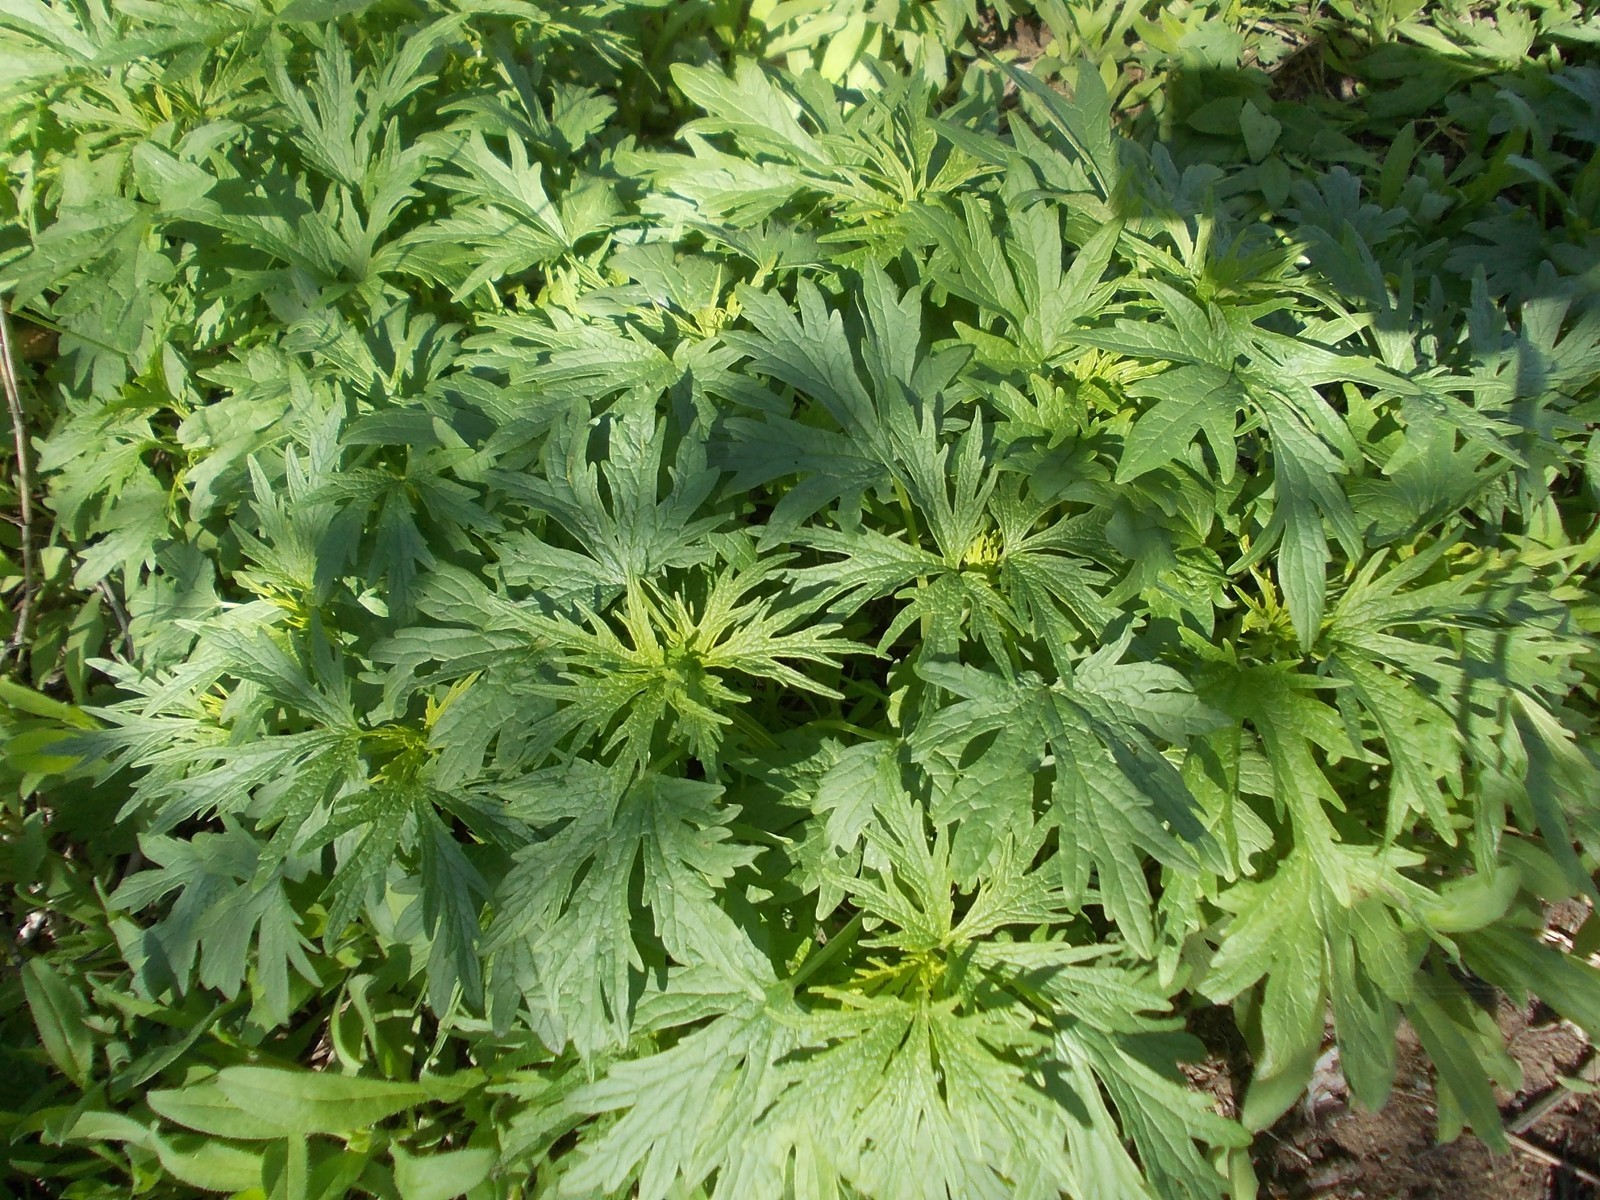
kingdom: Plantae
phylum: Tracheophyta
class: Magnoliopsida
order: Lamiales
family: Lamiaceae
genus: Leonurus
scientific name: Leonurus glaucescens
